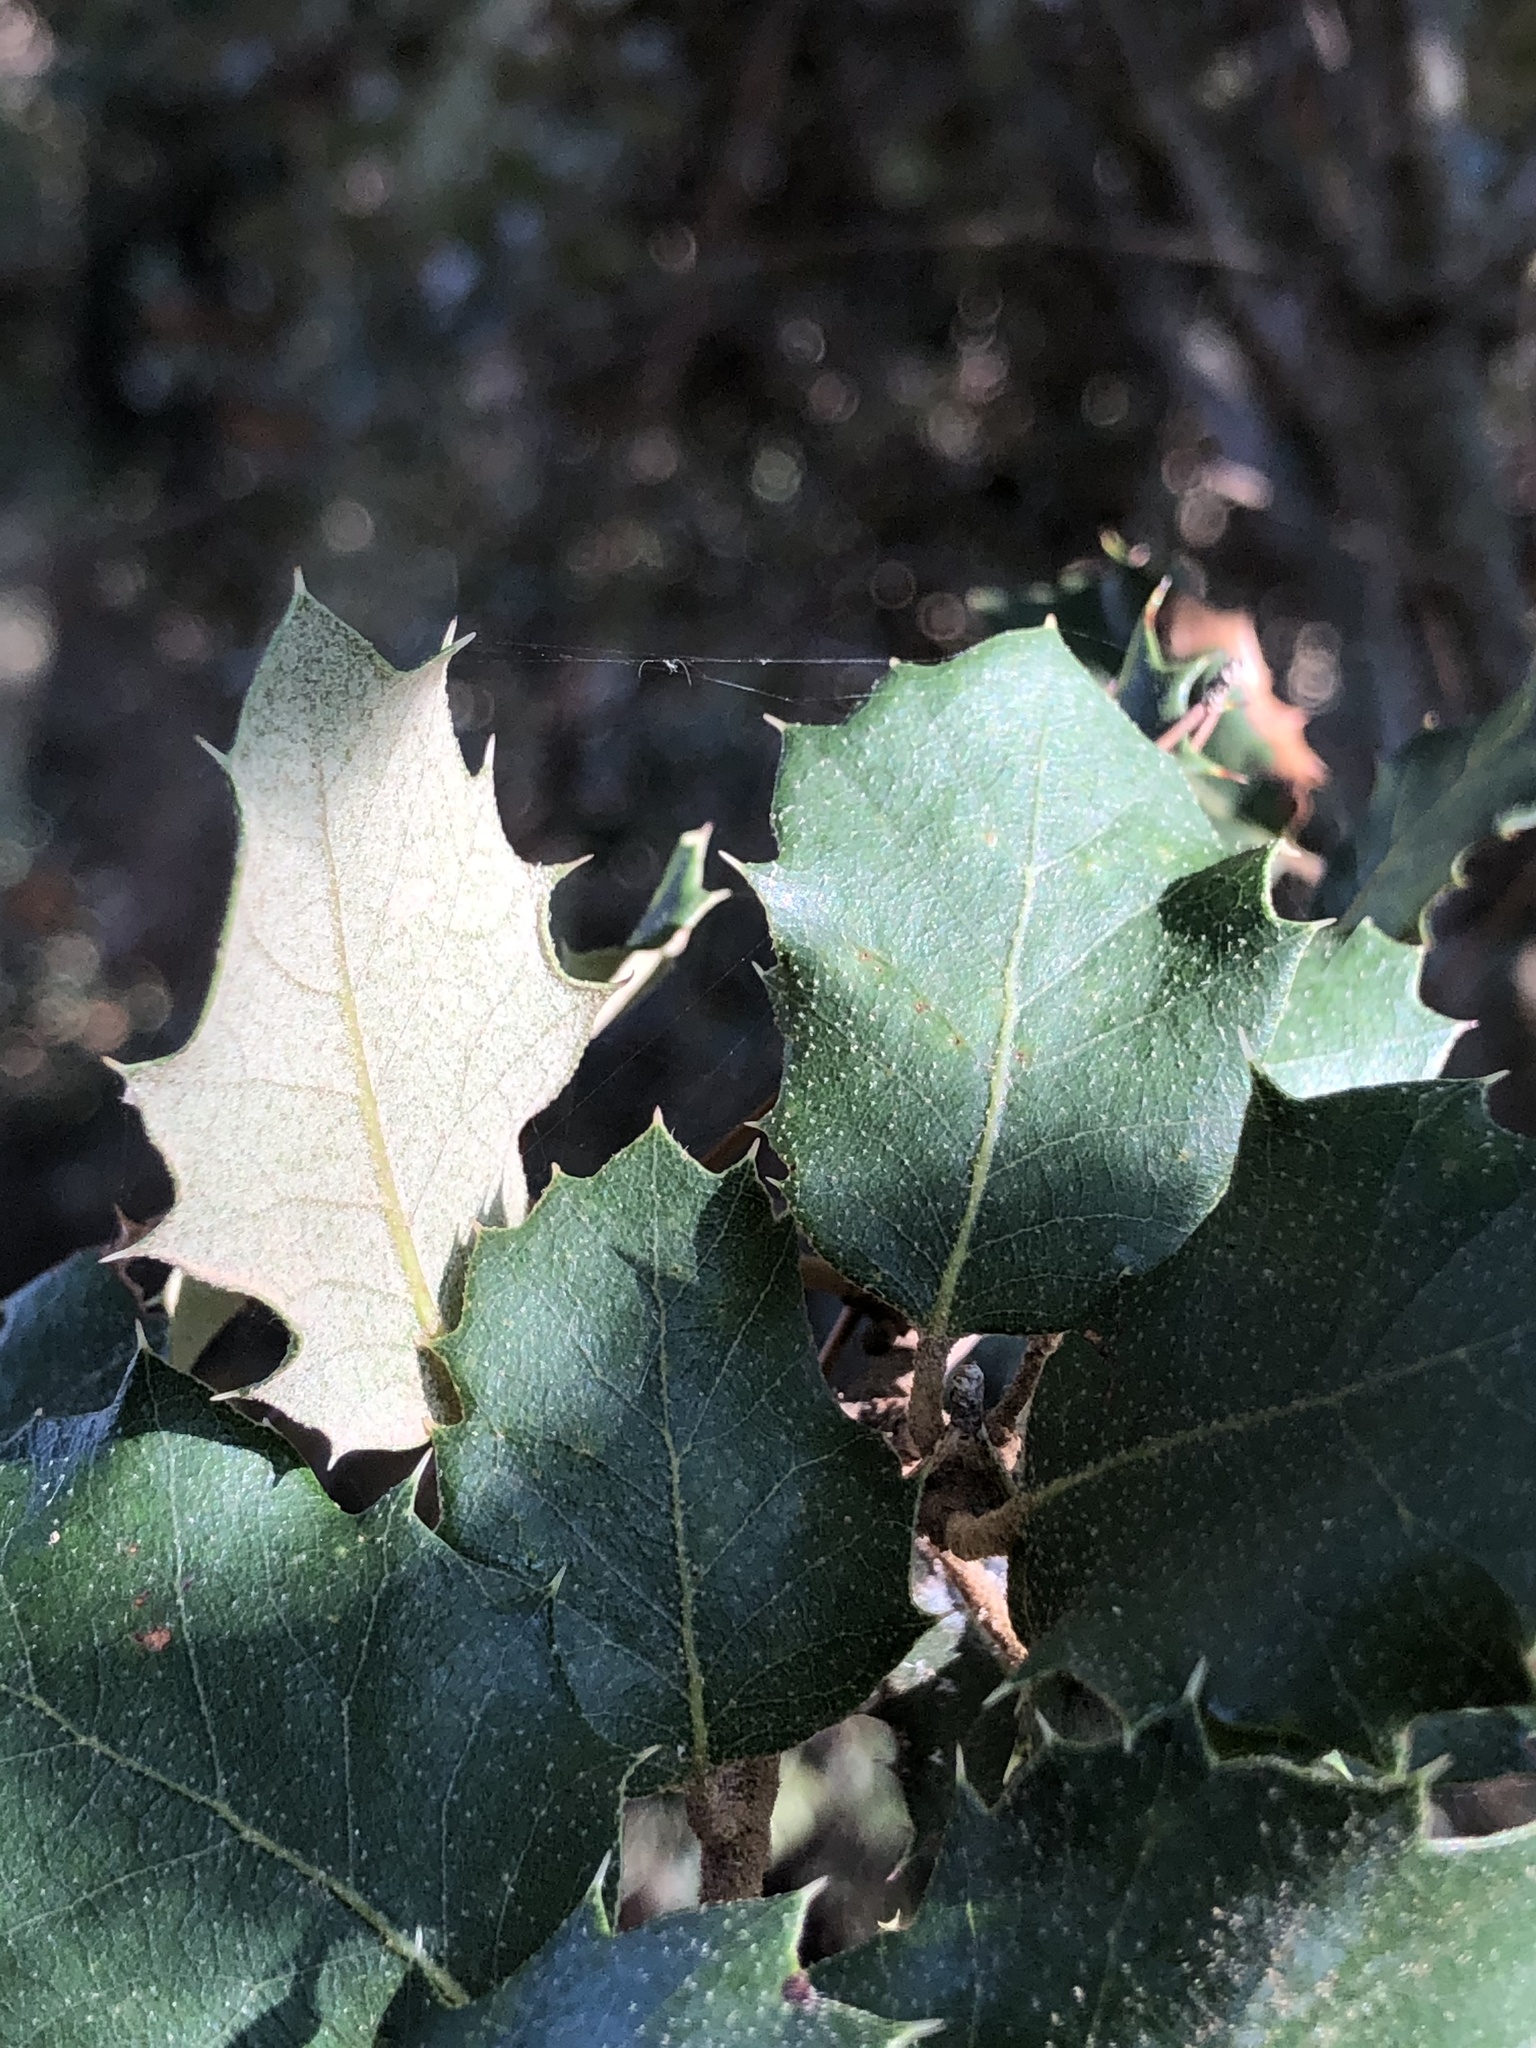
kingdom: Plantae
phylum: Tracheophyta
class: Magnoliopsida
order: Fagales
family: Fagaceae
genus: Quercus
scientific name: Quercus rotundifolia
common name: Holm oak
